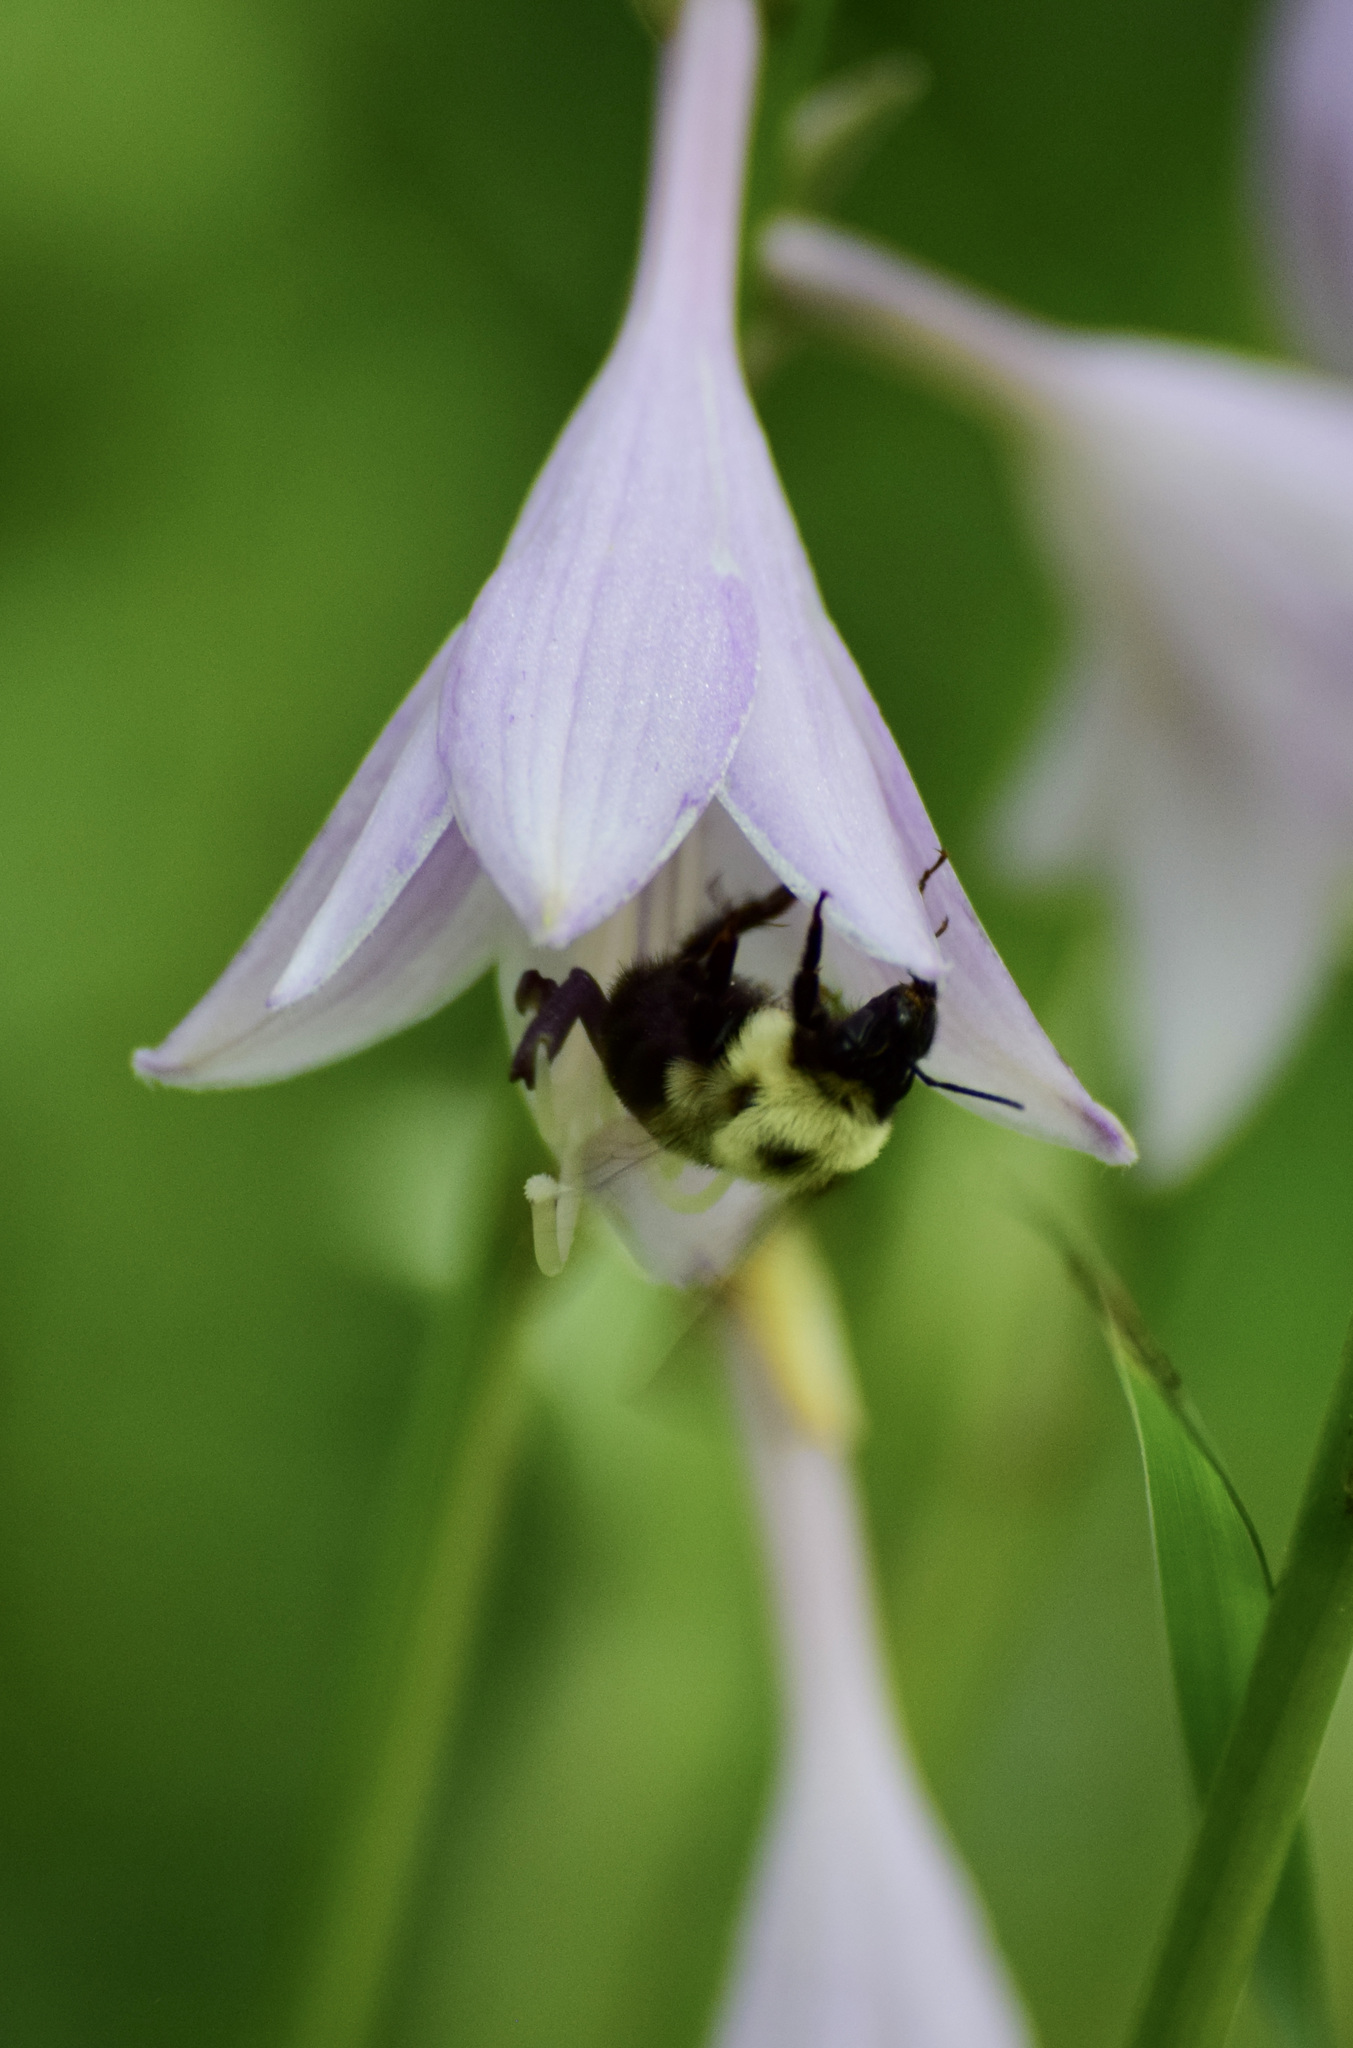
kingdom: Animalia
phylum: Arthropoda
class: Insecta
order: Hymenoptera
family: Apidae
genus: Bombus
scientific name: Bombus bimaculatus
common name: Two-spotted bumble bee
